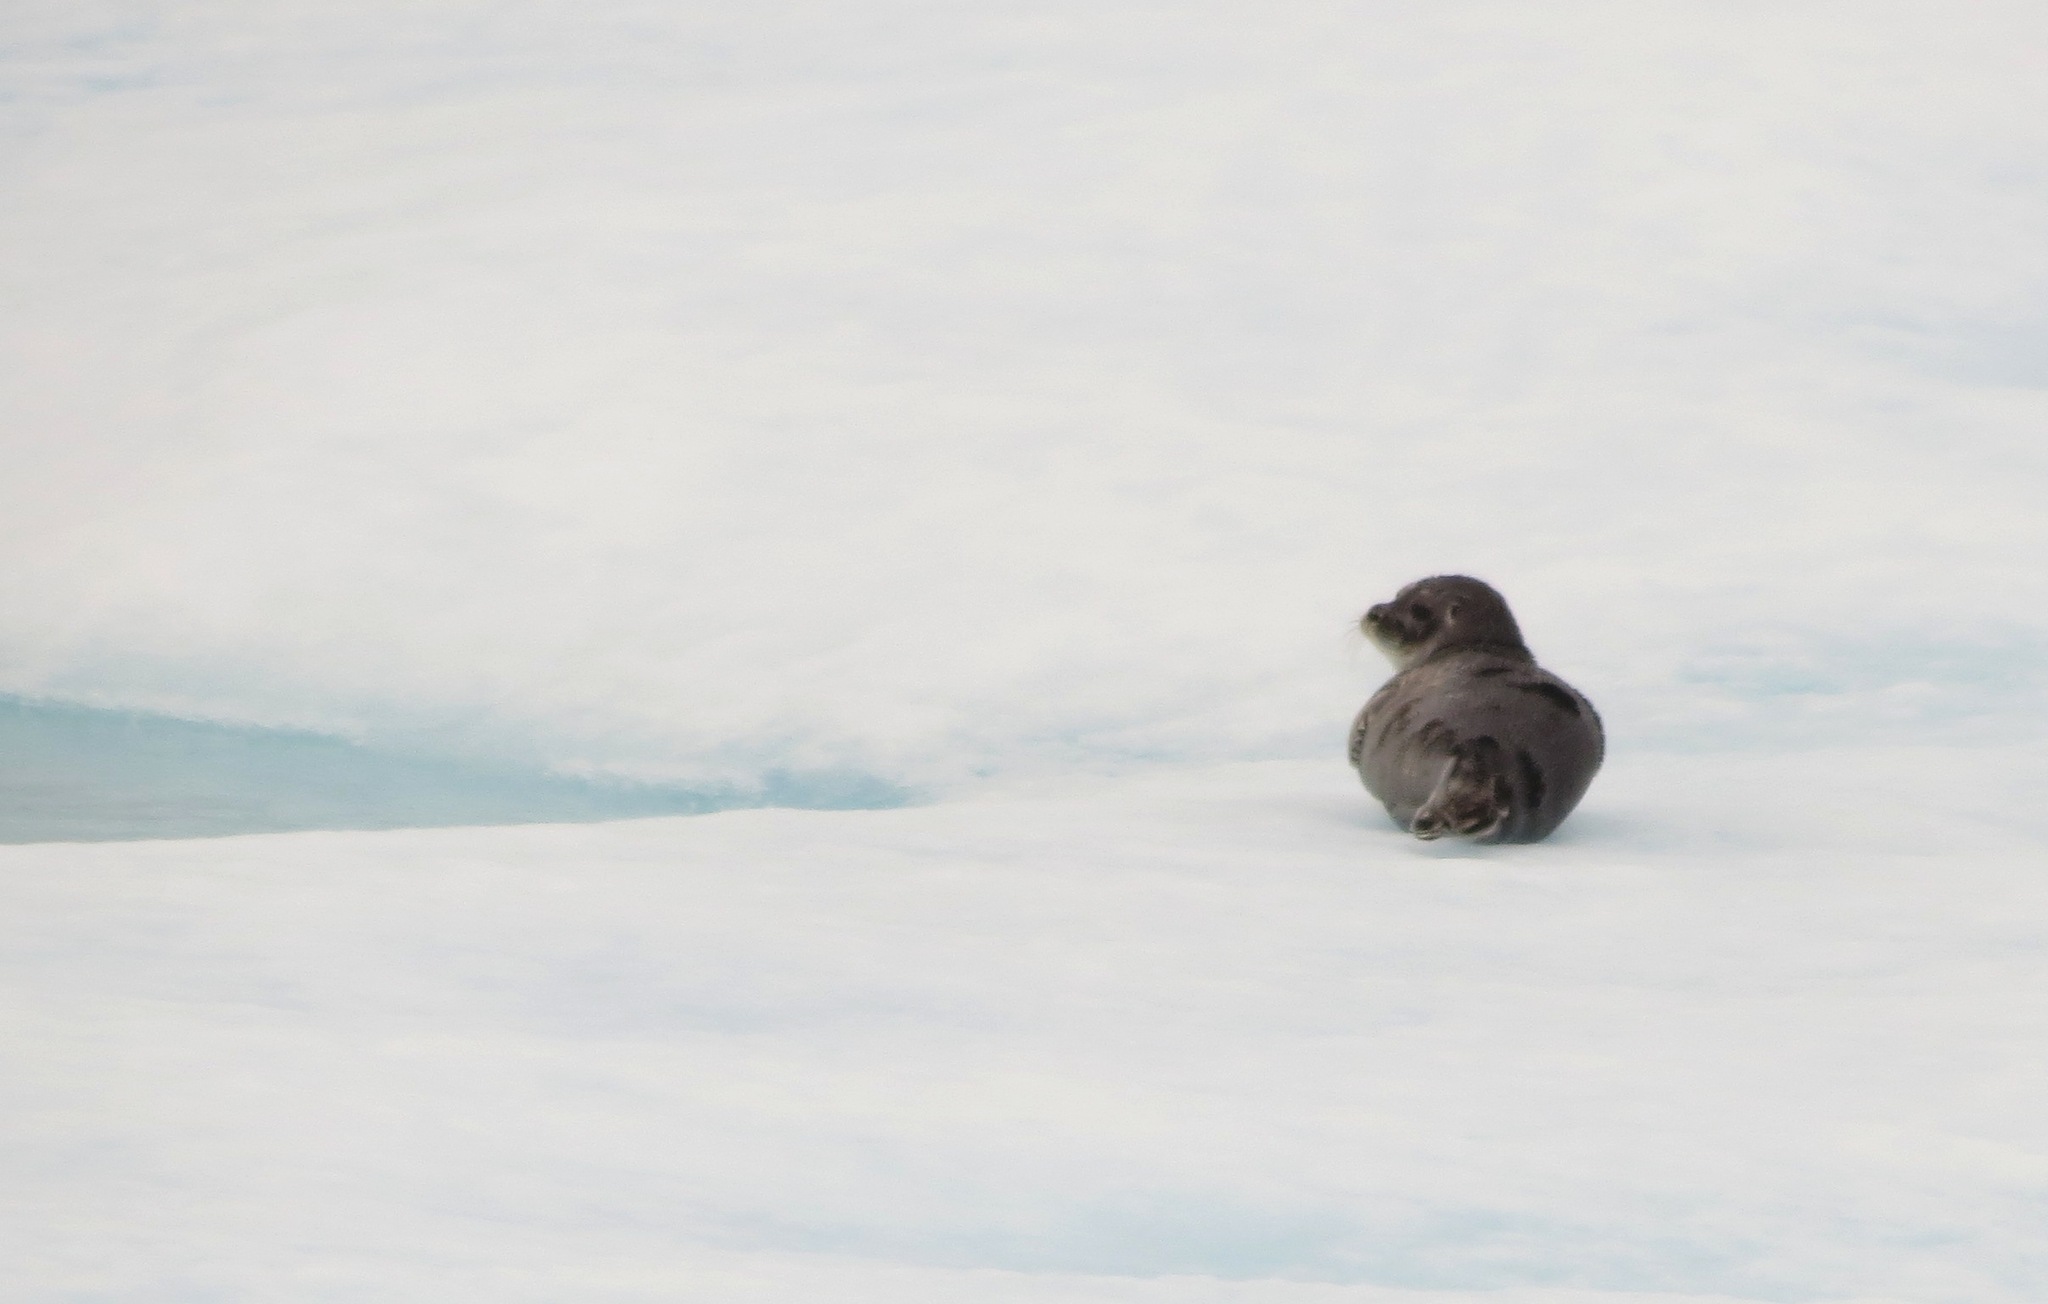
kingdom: Animalia
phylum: Chordata
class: Mammalia
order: Carnivora
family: Phocidae
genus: Pusa
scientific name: Pusa hispida
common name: Ringed seal
